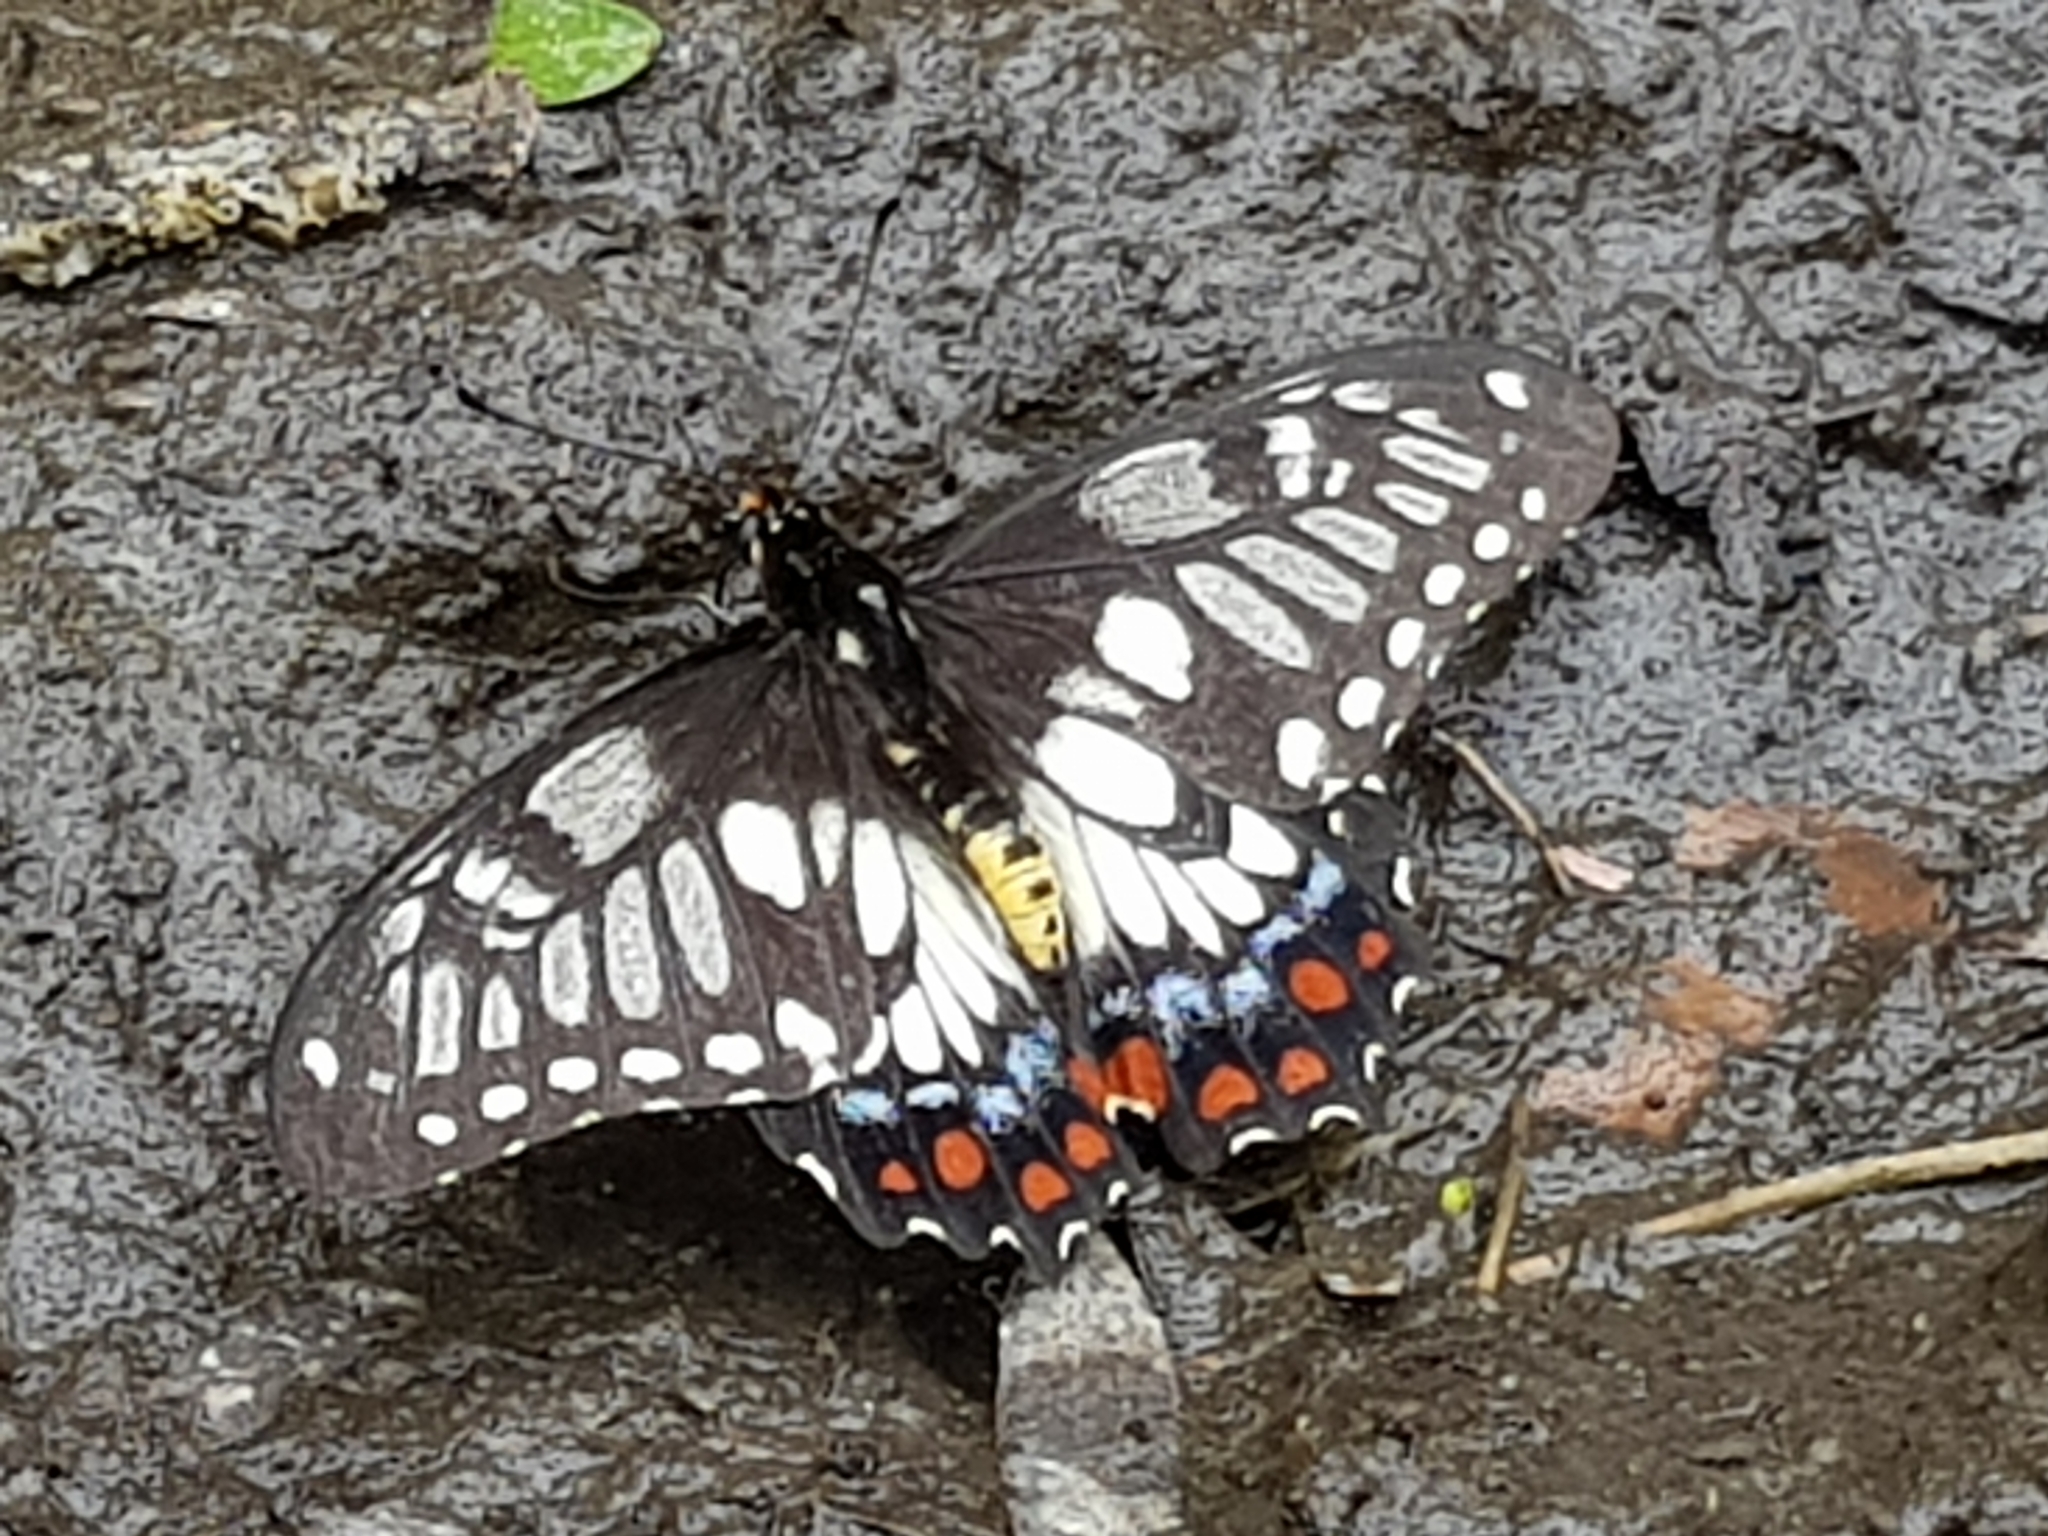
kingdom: Animalia
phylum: Arthropoda
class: Insecta
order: Lepidoptera
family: Papilionidae
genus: Papilio
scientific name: Papilio anactus
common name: Dingy swallowtail
